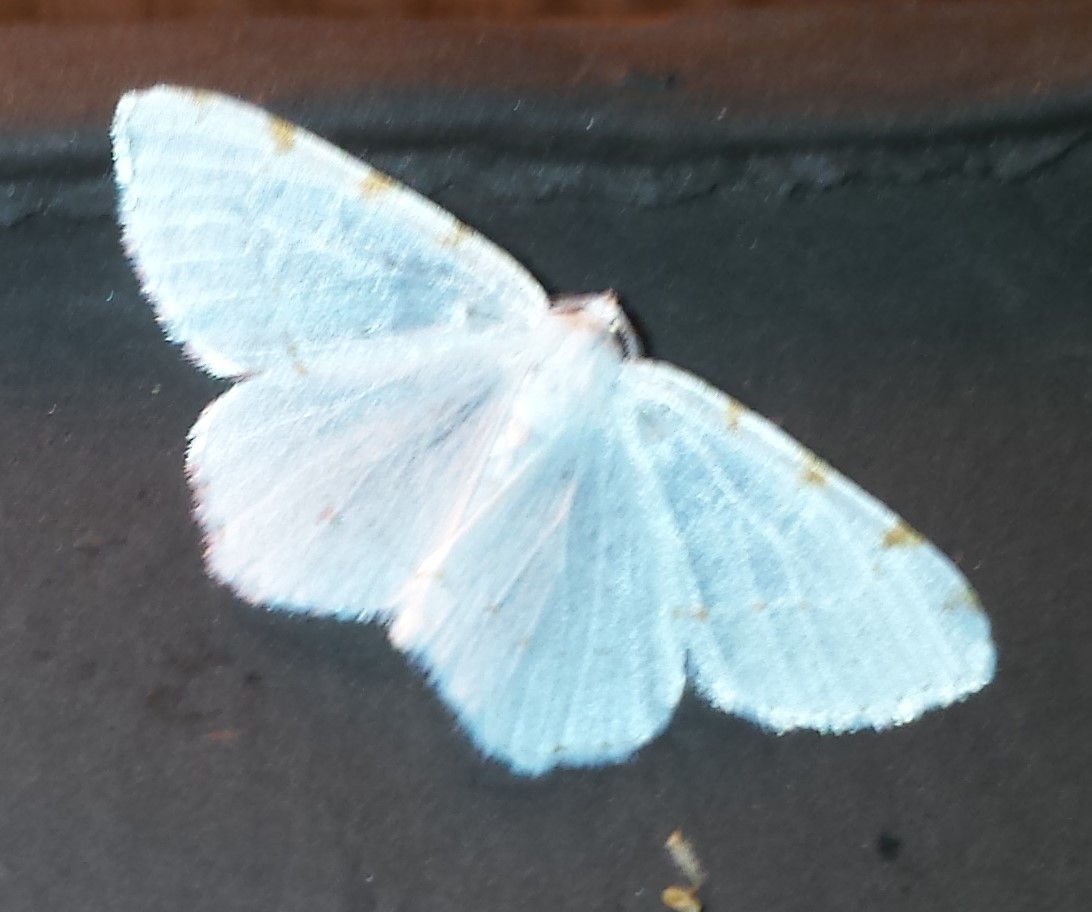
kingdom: Animalia
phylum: Arthropoda
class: Insecta
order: Lepidoptera
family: Geometridae
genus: Macaria
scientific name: Macaria pustularia
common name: Lesser maple spanworm moth
